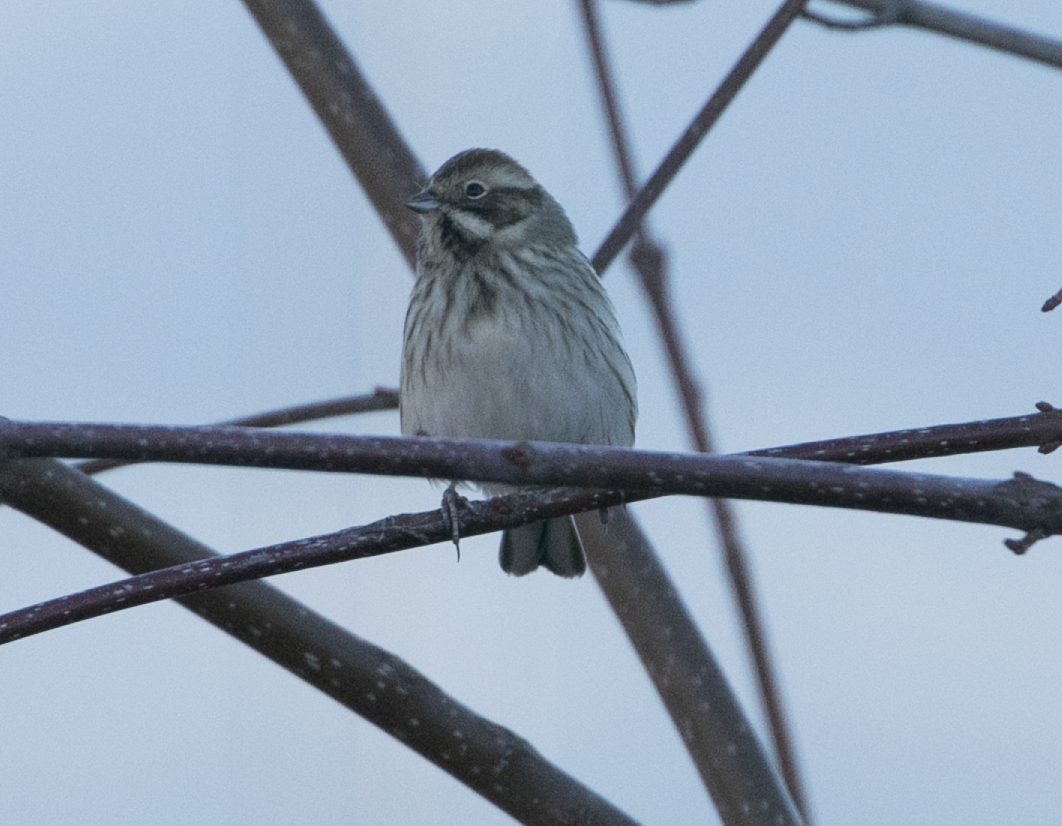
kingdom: Animalia
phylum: Chordata
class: Aves
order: Passeriformes
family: Emberizidae
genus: Emberiza
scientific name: Emberiza schoeniclus
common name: Reed bunting
